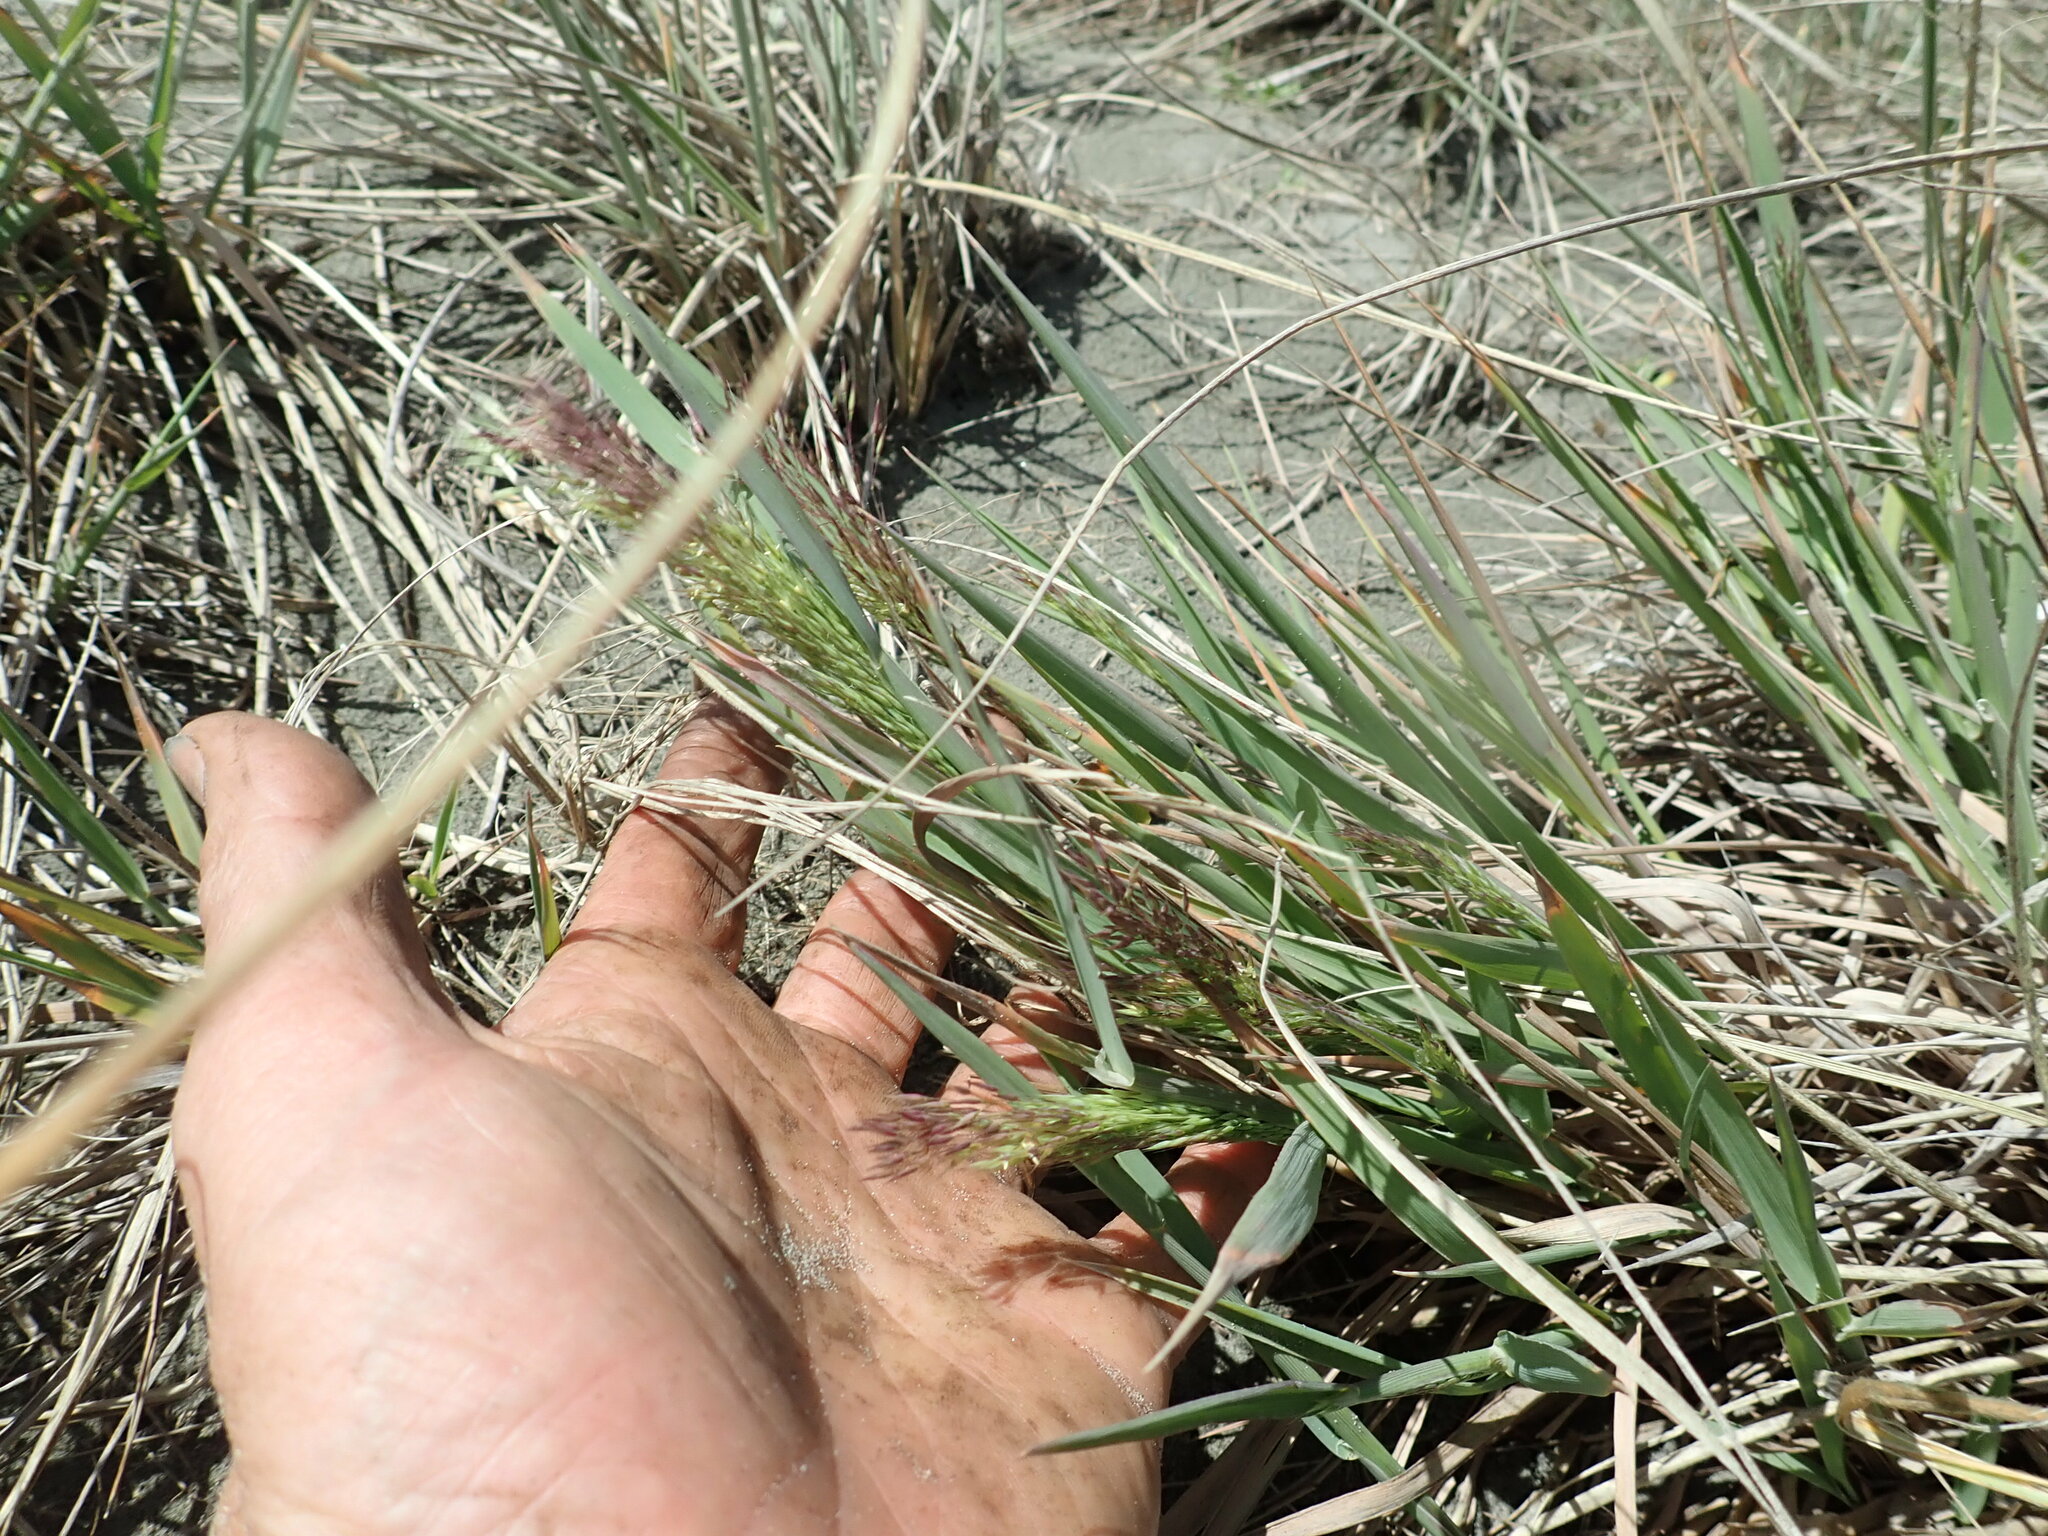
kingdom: Plantae
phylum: Tracheophyta
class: Liliopsida
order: Poales
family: Poaceae
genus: Lachnagrostis
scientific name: Lachnagrostis billardierei
